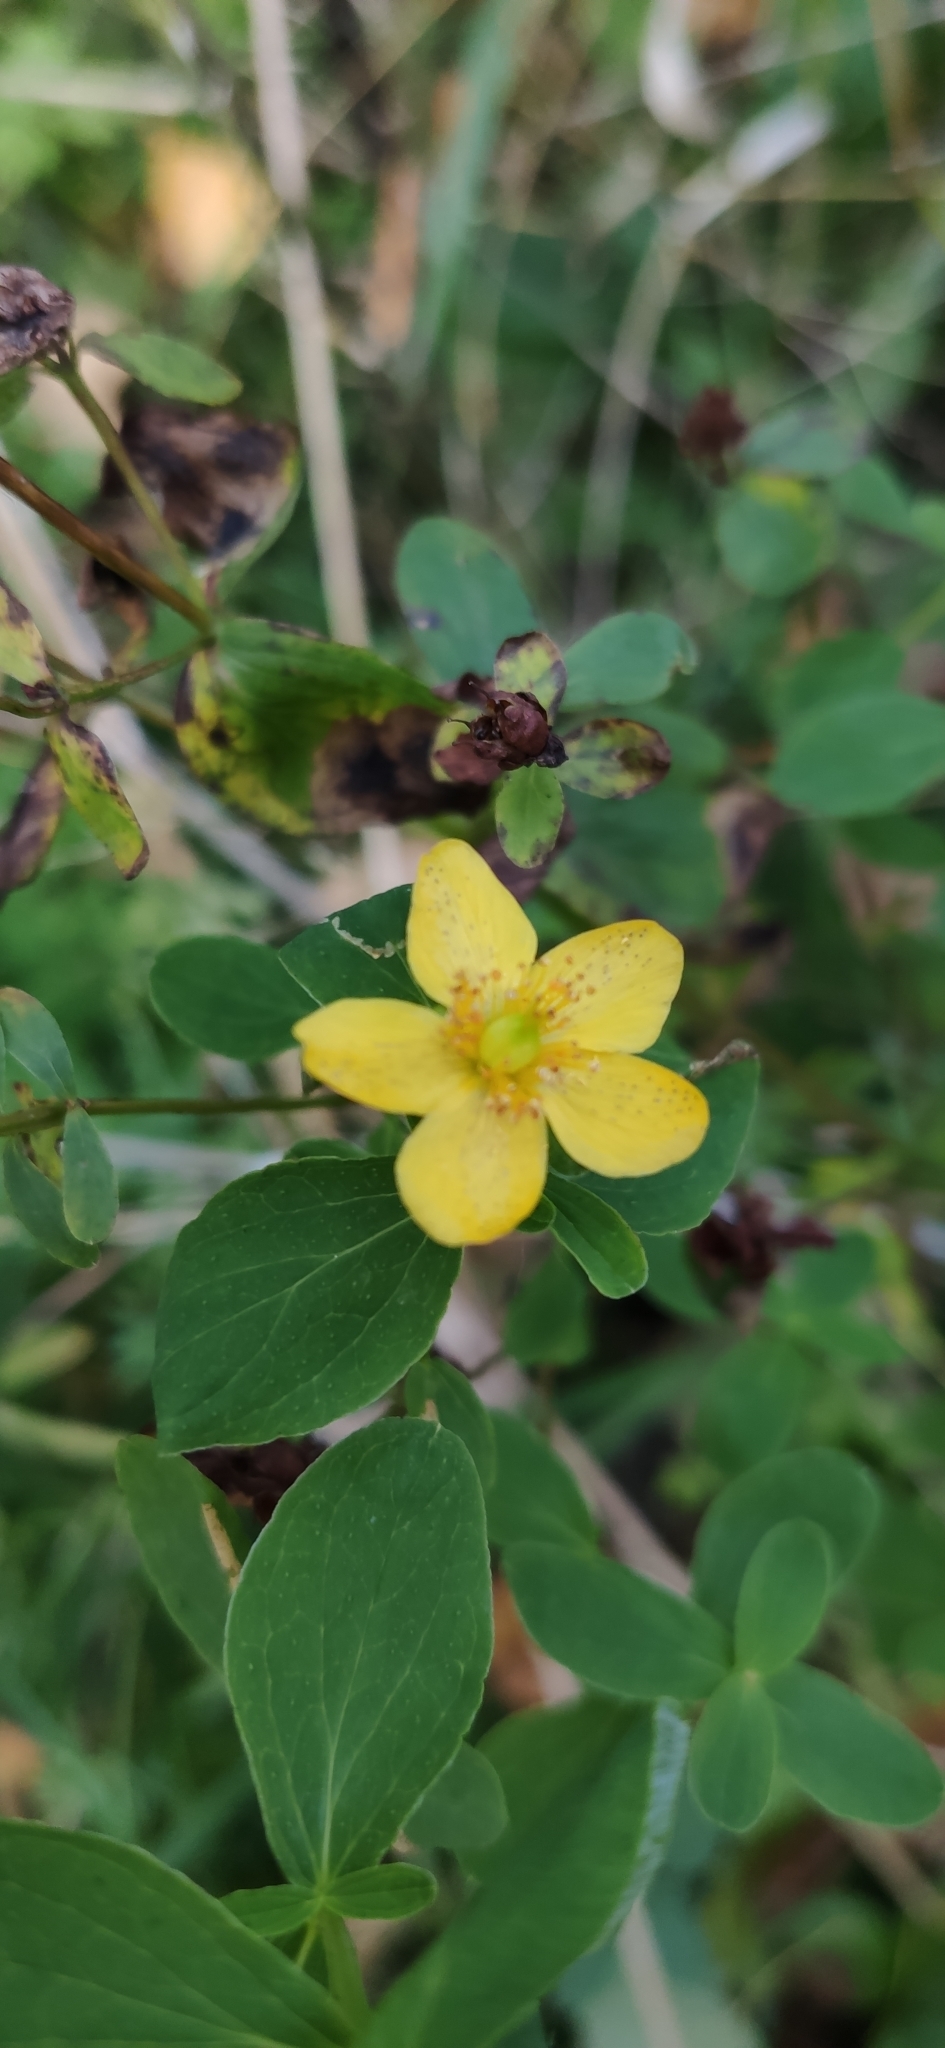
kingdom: Plantae
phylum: Tracheophyta
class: Magnoliopsida
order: Malpighiales
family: Hypericaceae
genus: Hypericum
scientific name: Hypericum maculatum
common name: Imperforate st. john's-wort
